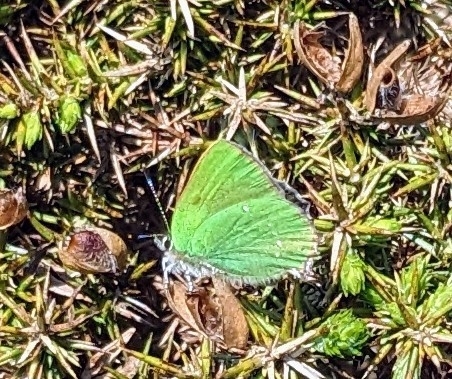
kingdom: Animalia
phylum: Arthropoda
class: Insecta
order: Lepidoptera
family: Lycaenidae
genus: Callophrys
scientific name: Callophrys rubi
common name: Green hairstreak
